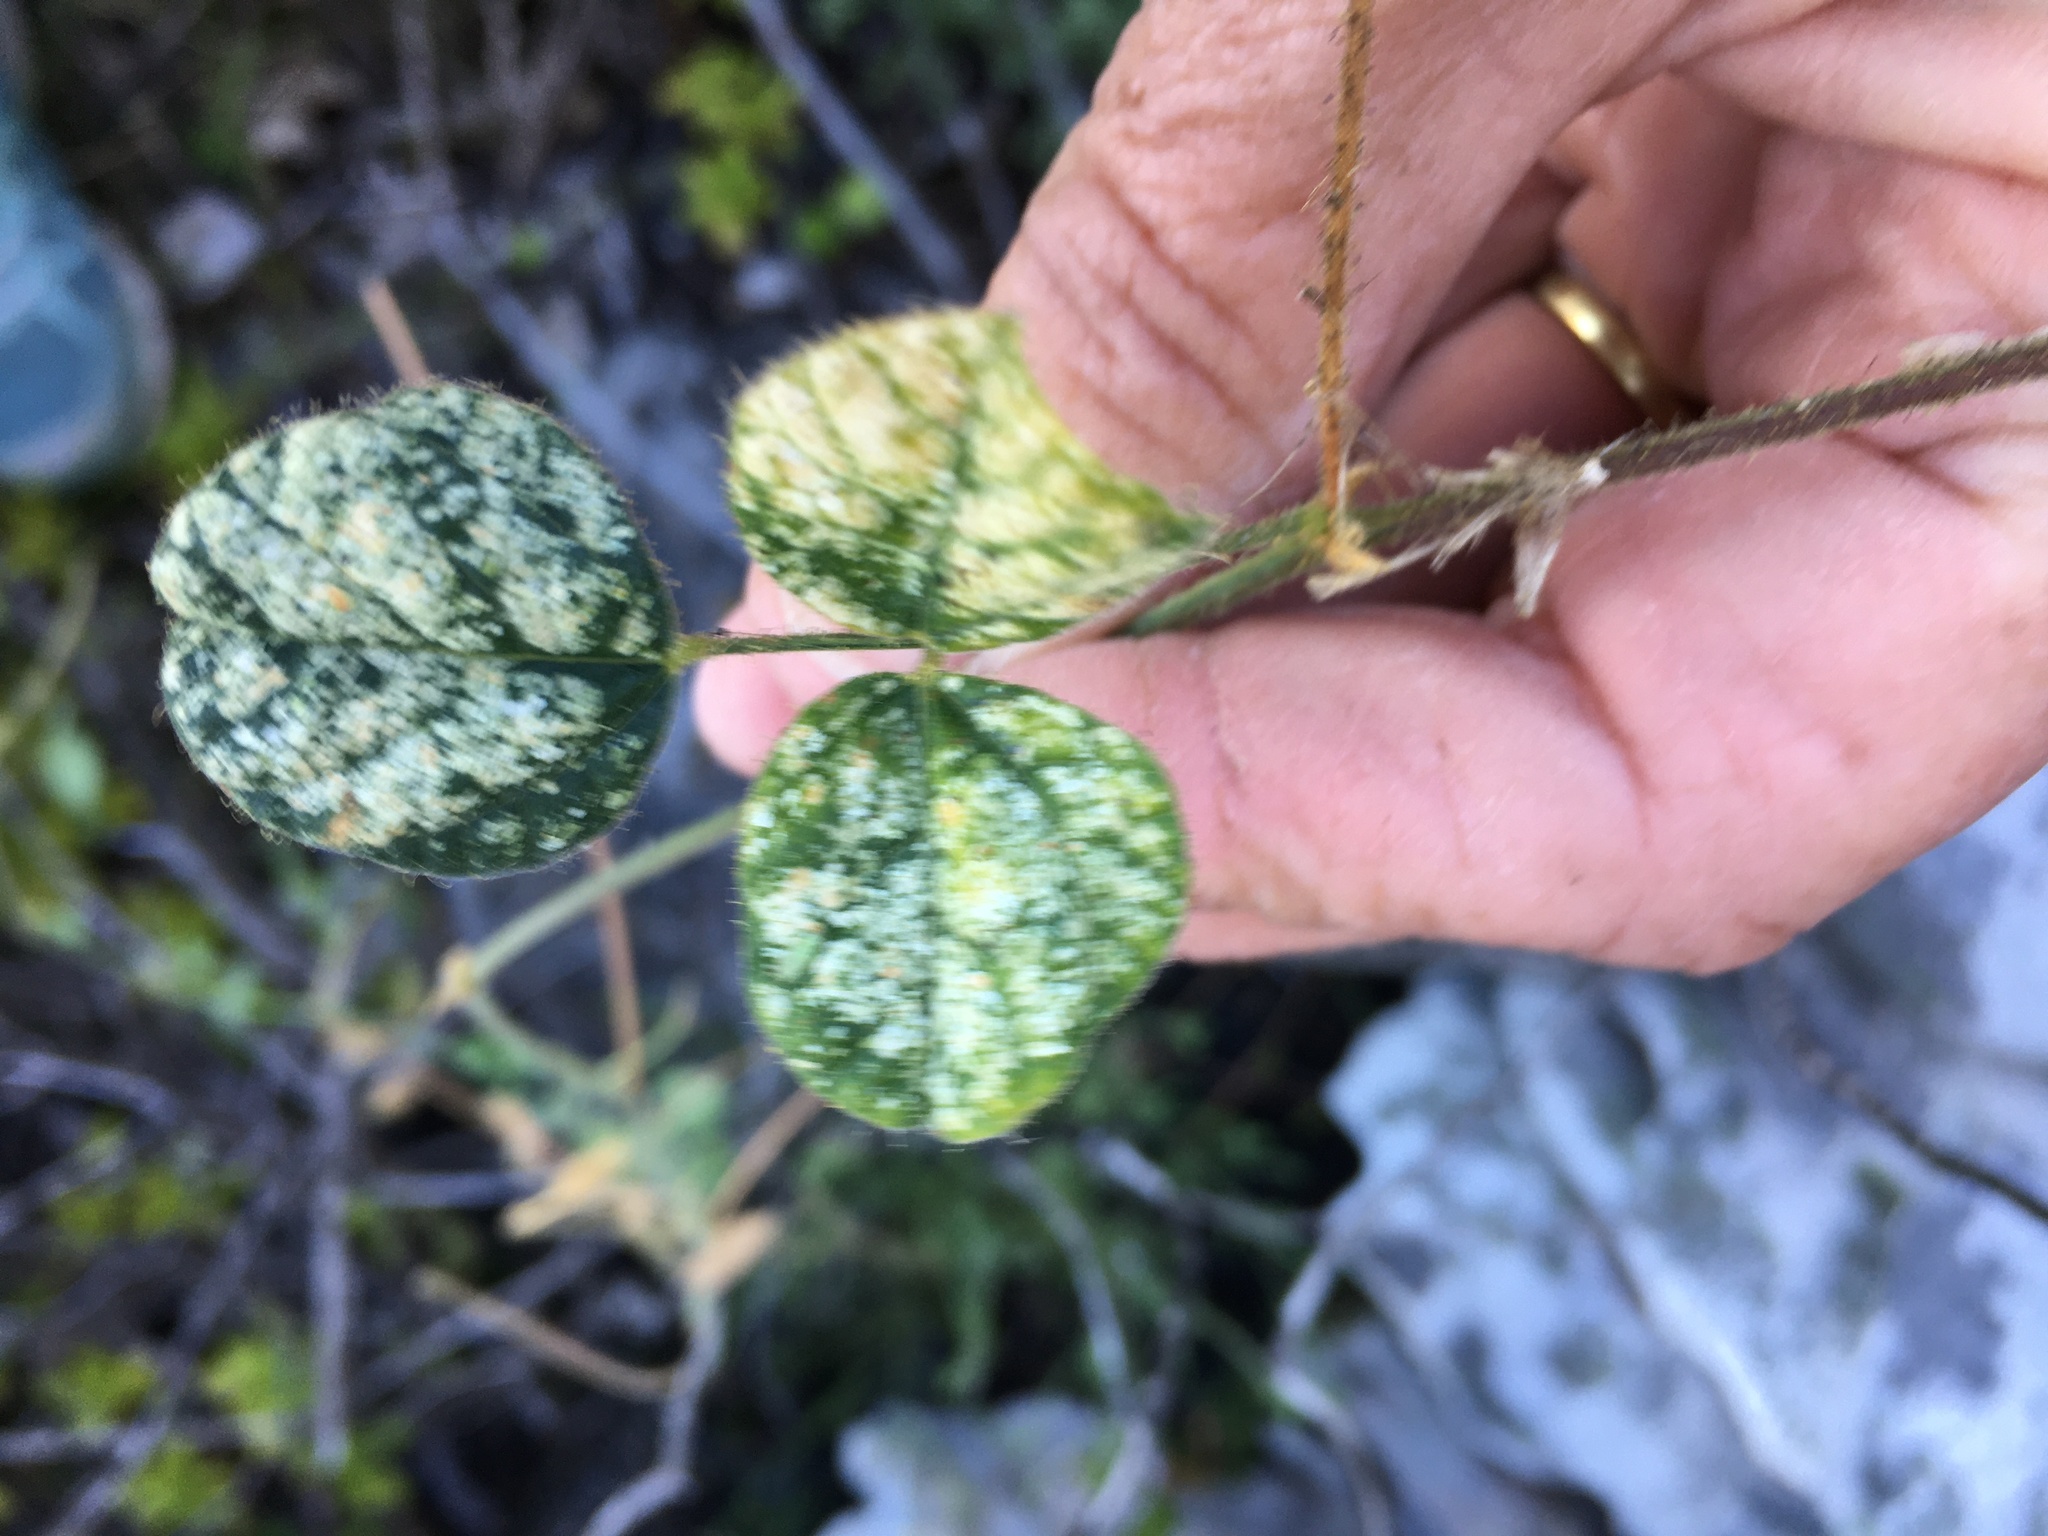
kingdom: Plantae
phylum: Tracheophyta
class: Magnoliopsida
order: Fabales
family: Fabaceae
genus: Bolusafra
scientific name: Bolusafra bituminosa
